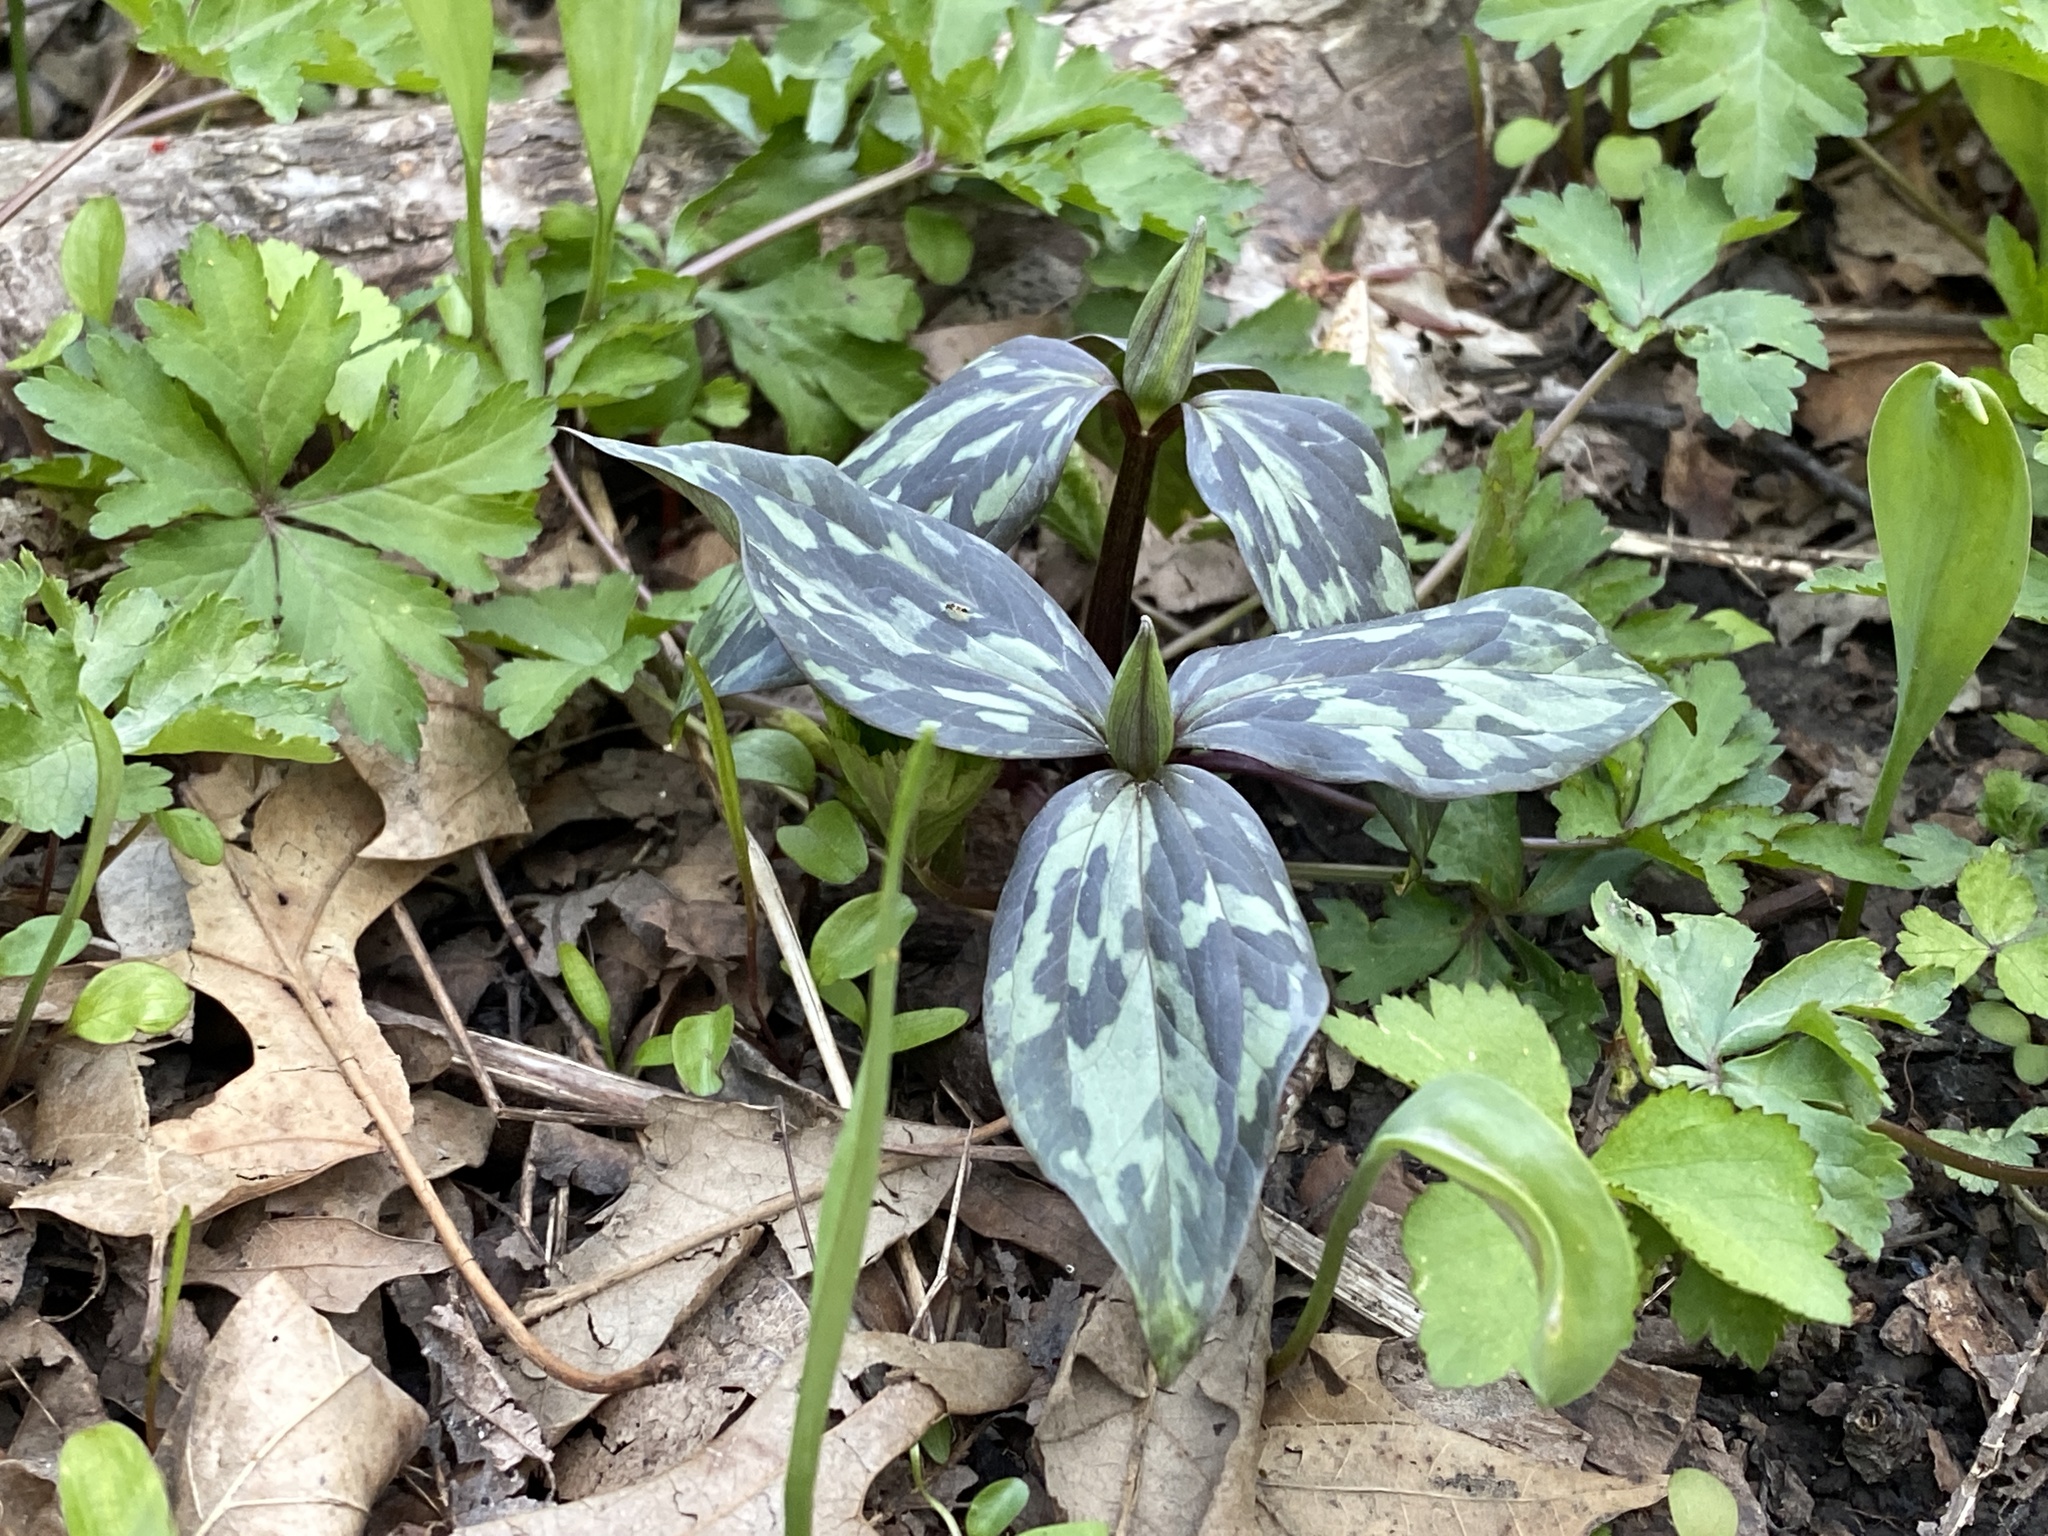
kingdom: Plantae
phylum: Tracheophyta
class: Liliopsida
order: Liliales
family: Melanthiaceae
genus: Trillium
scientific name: Trillium recurvatum
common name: Bloody butcher
